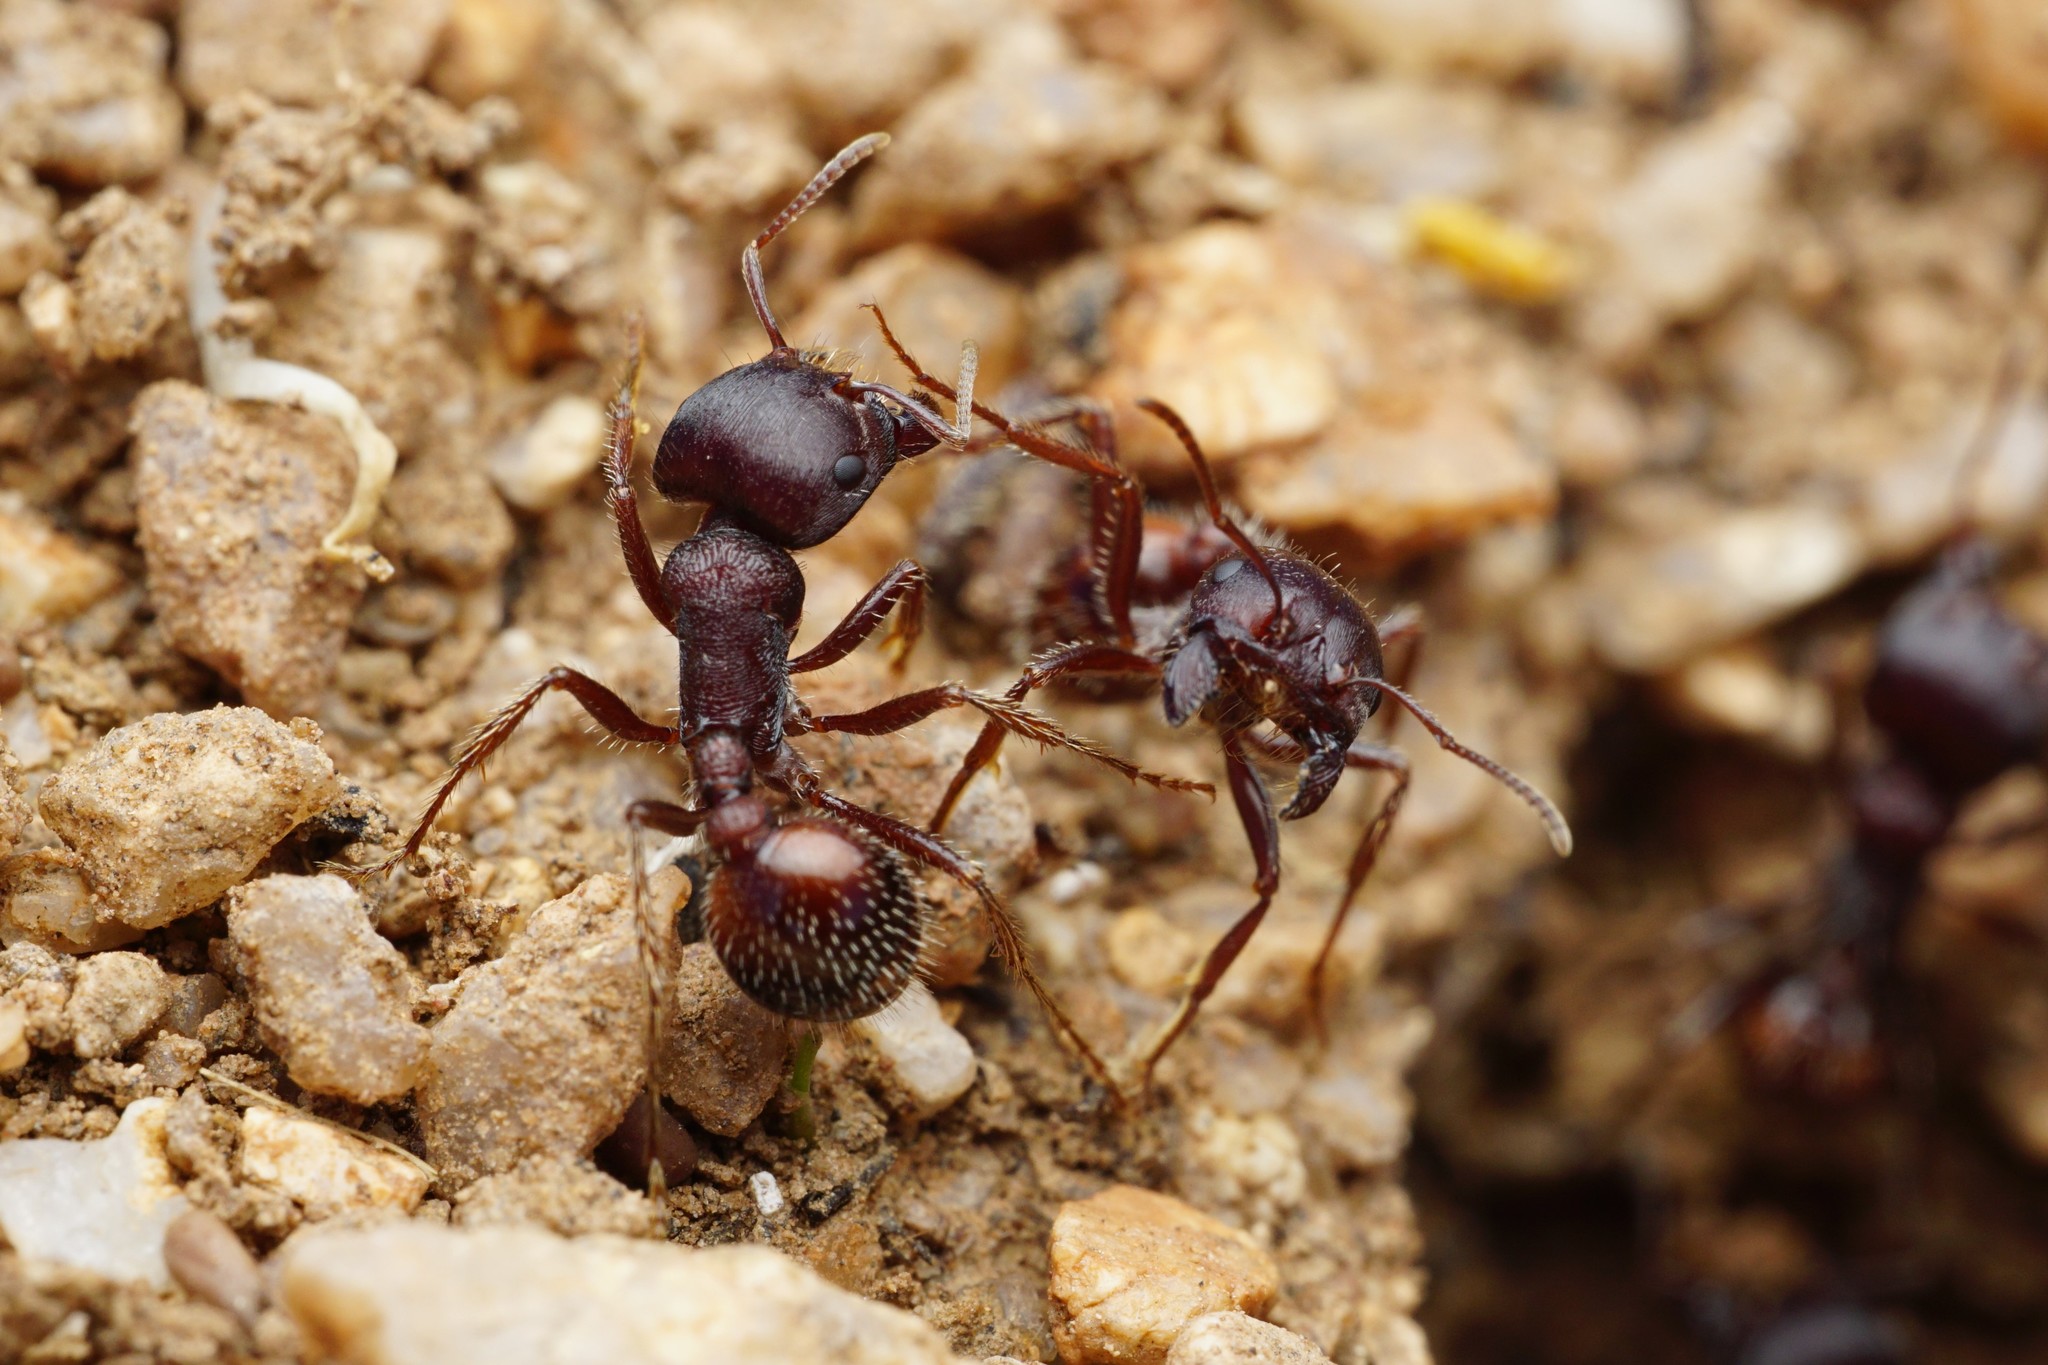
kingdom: Animalia
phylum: Arthropoda
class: Insecta
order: Hymenoptera
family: Formicidae
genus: Pogonomyrmex
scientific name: Pogonomyrmex rugosus
